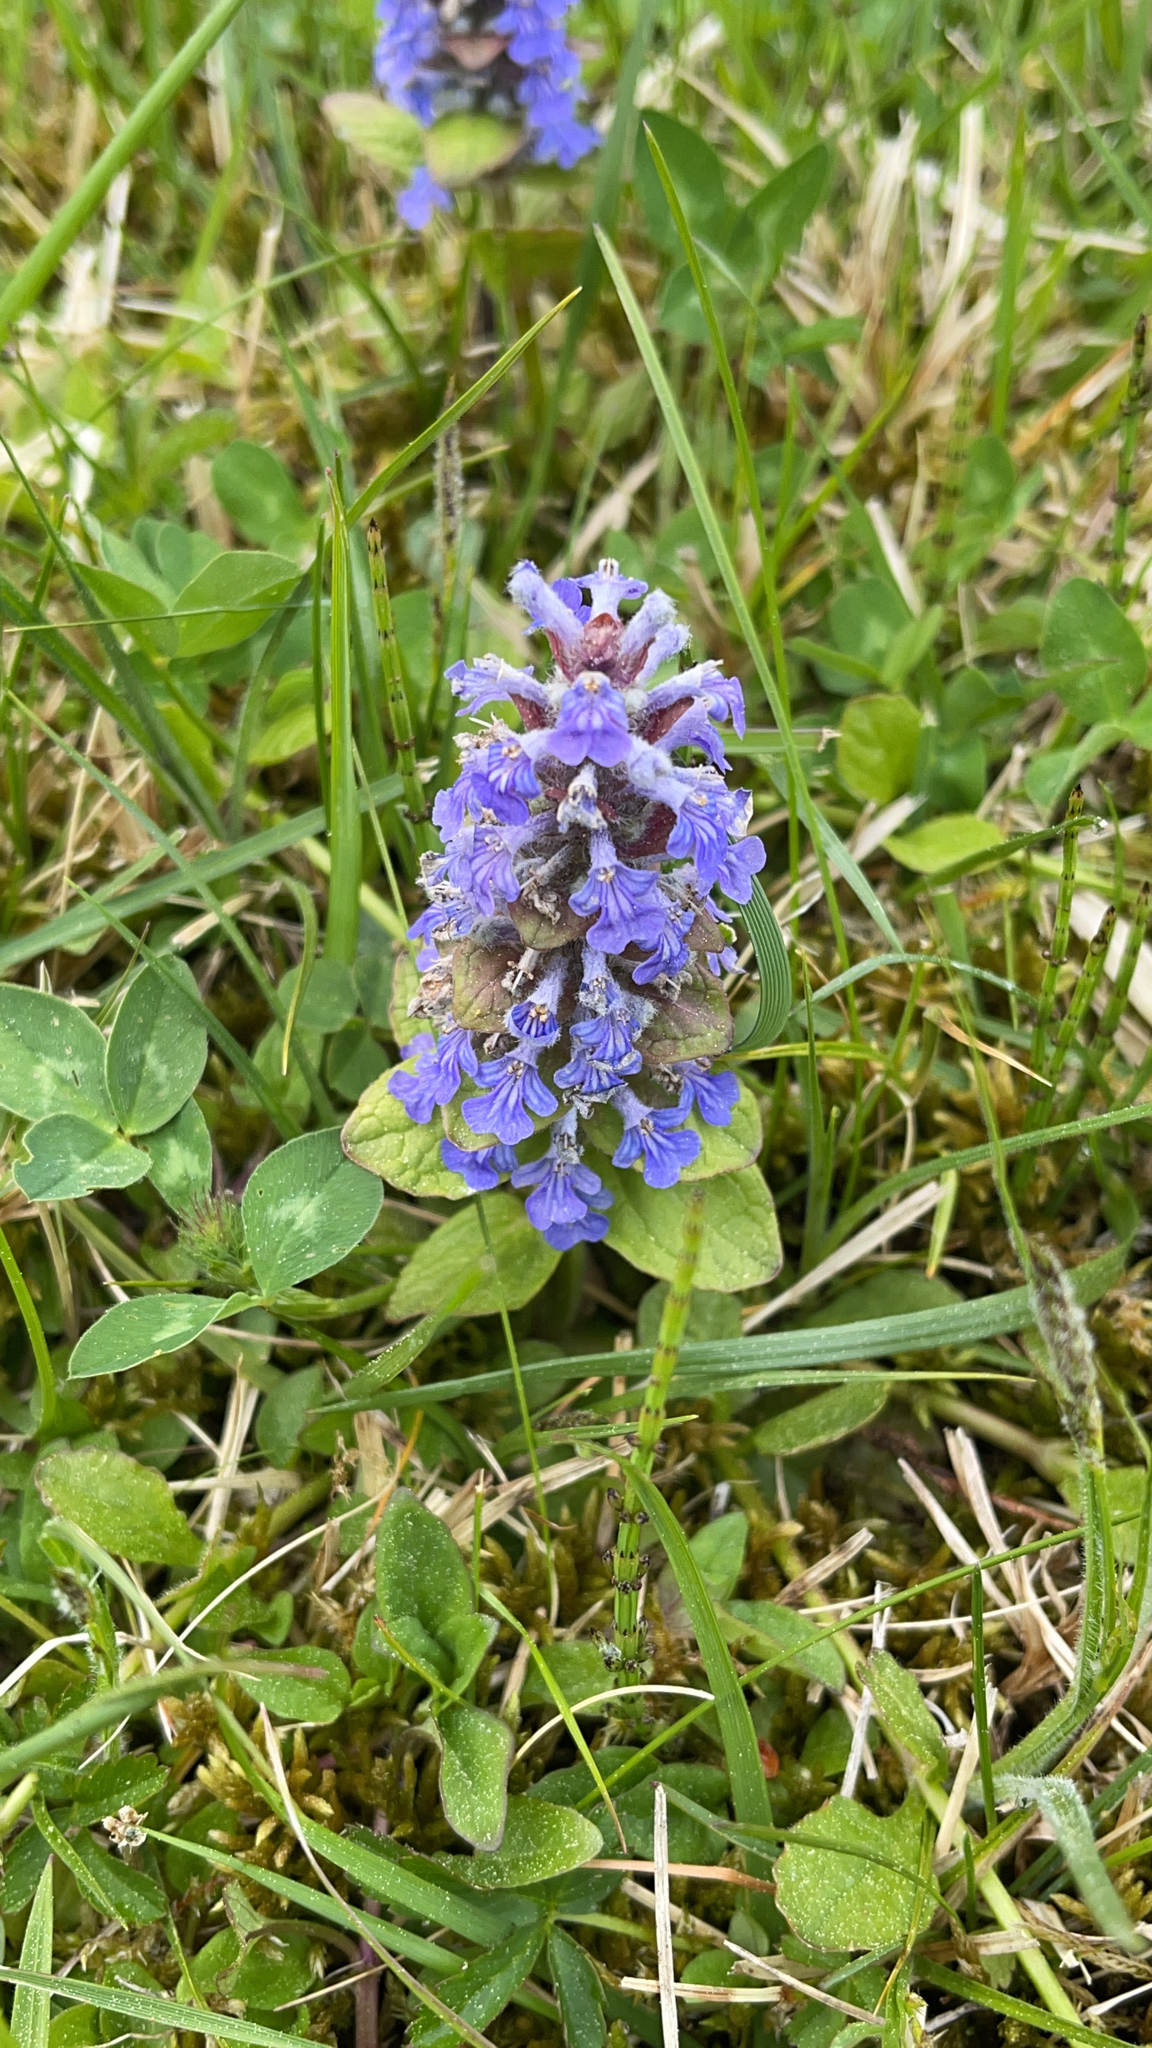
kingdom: Plantae
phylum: Tracheophyta
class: Magnoliopsida
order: Lamiales
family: Lamiaceae
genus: Ajuga
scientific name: Ajuga reptans
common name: Bugle
